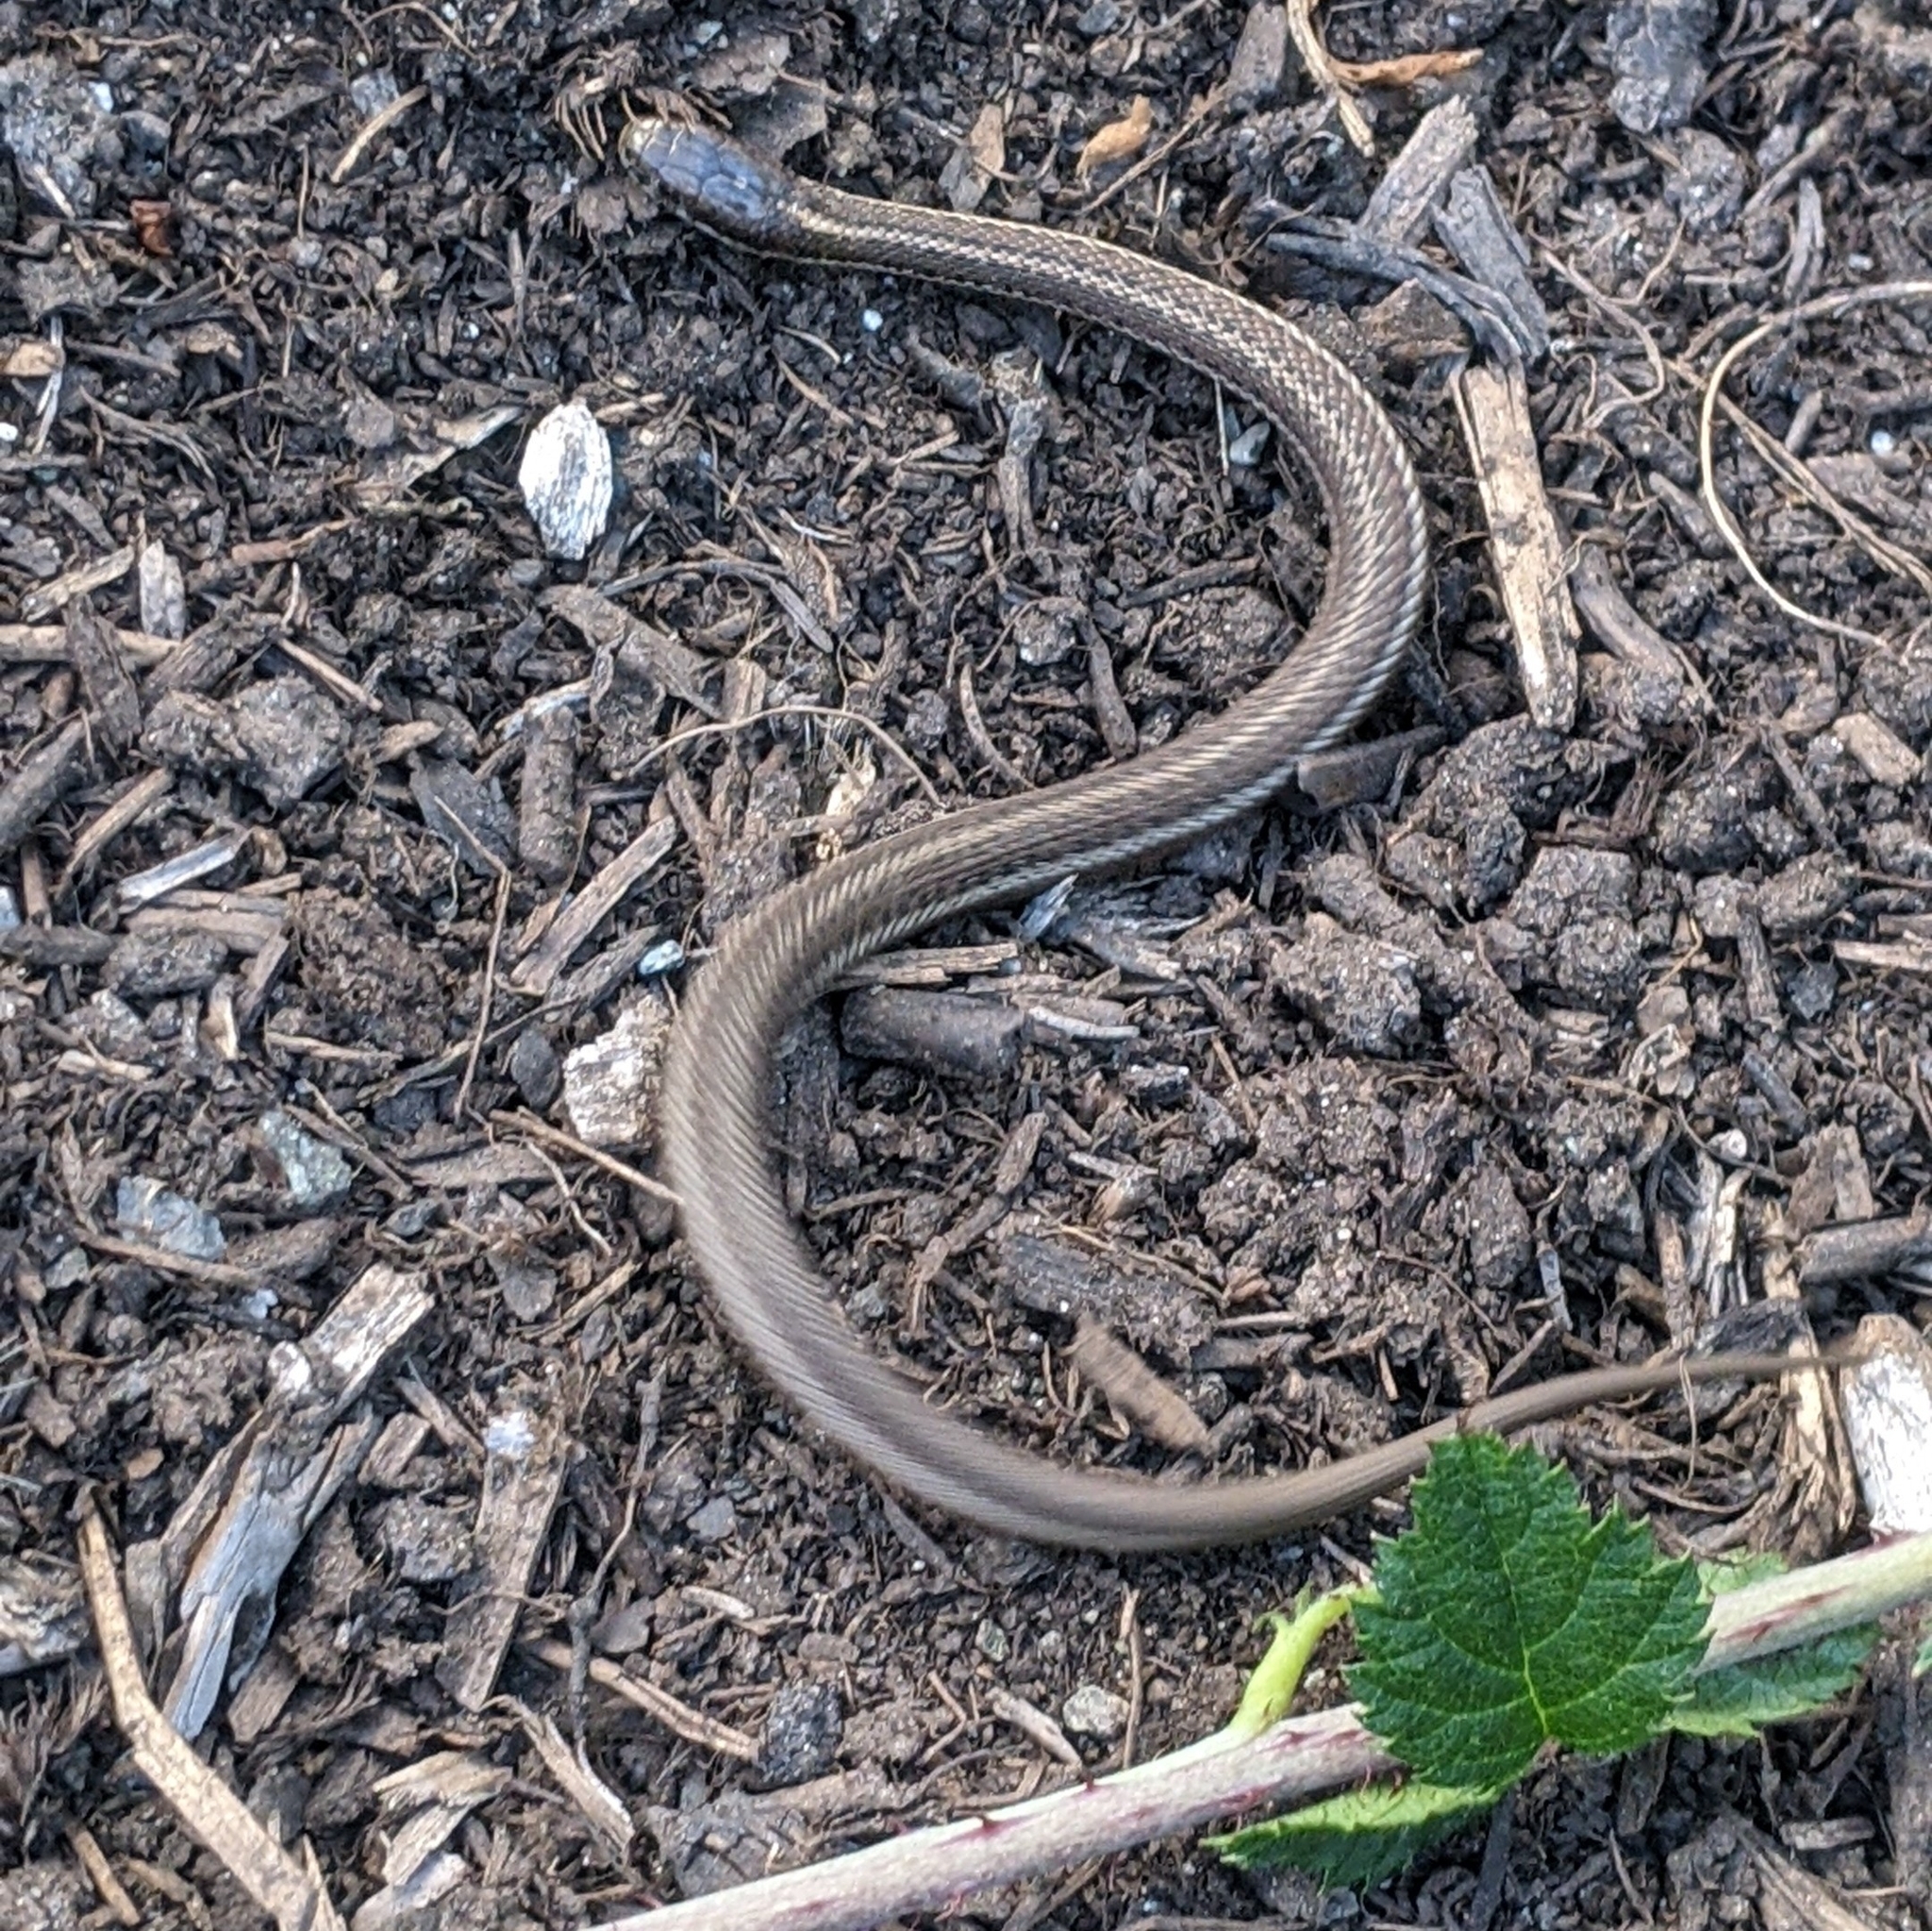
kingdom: Animalia
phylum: Chordata
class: Squamata
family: Colubridae
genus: Thamnophis
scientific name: Thamnophis ordinoides
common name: Northwestern garter snake
